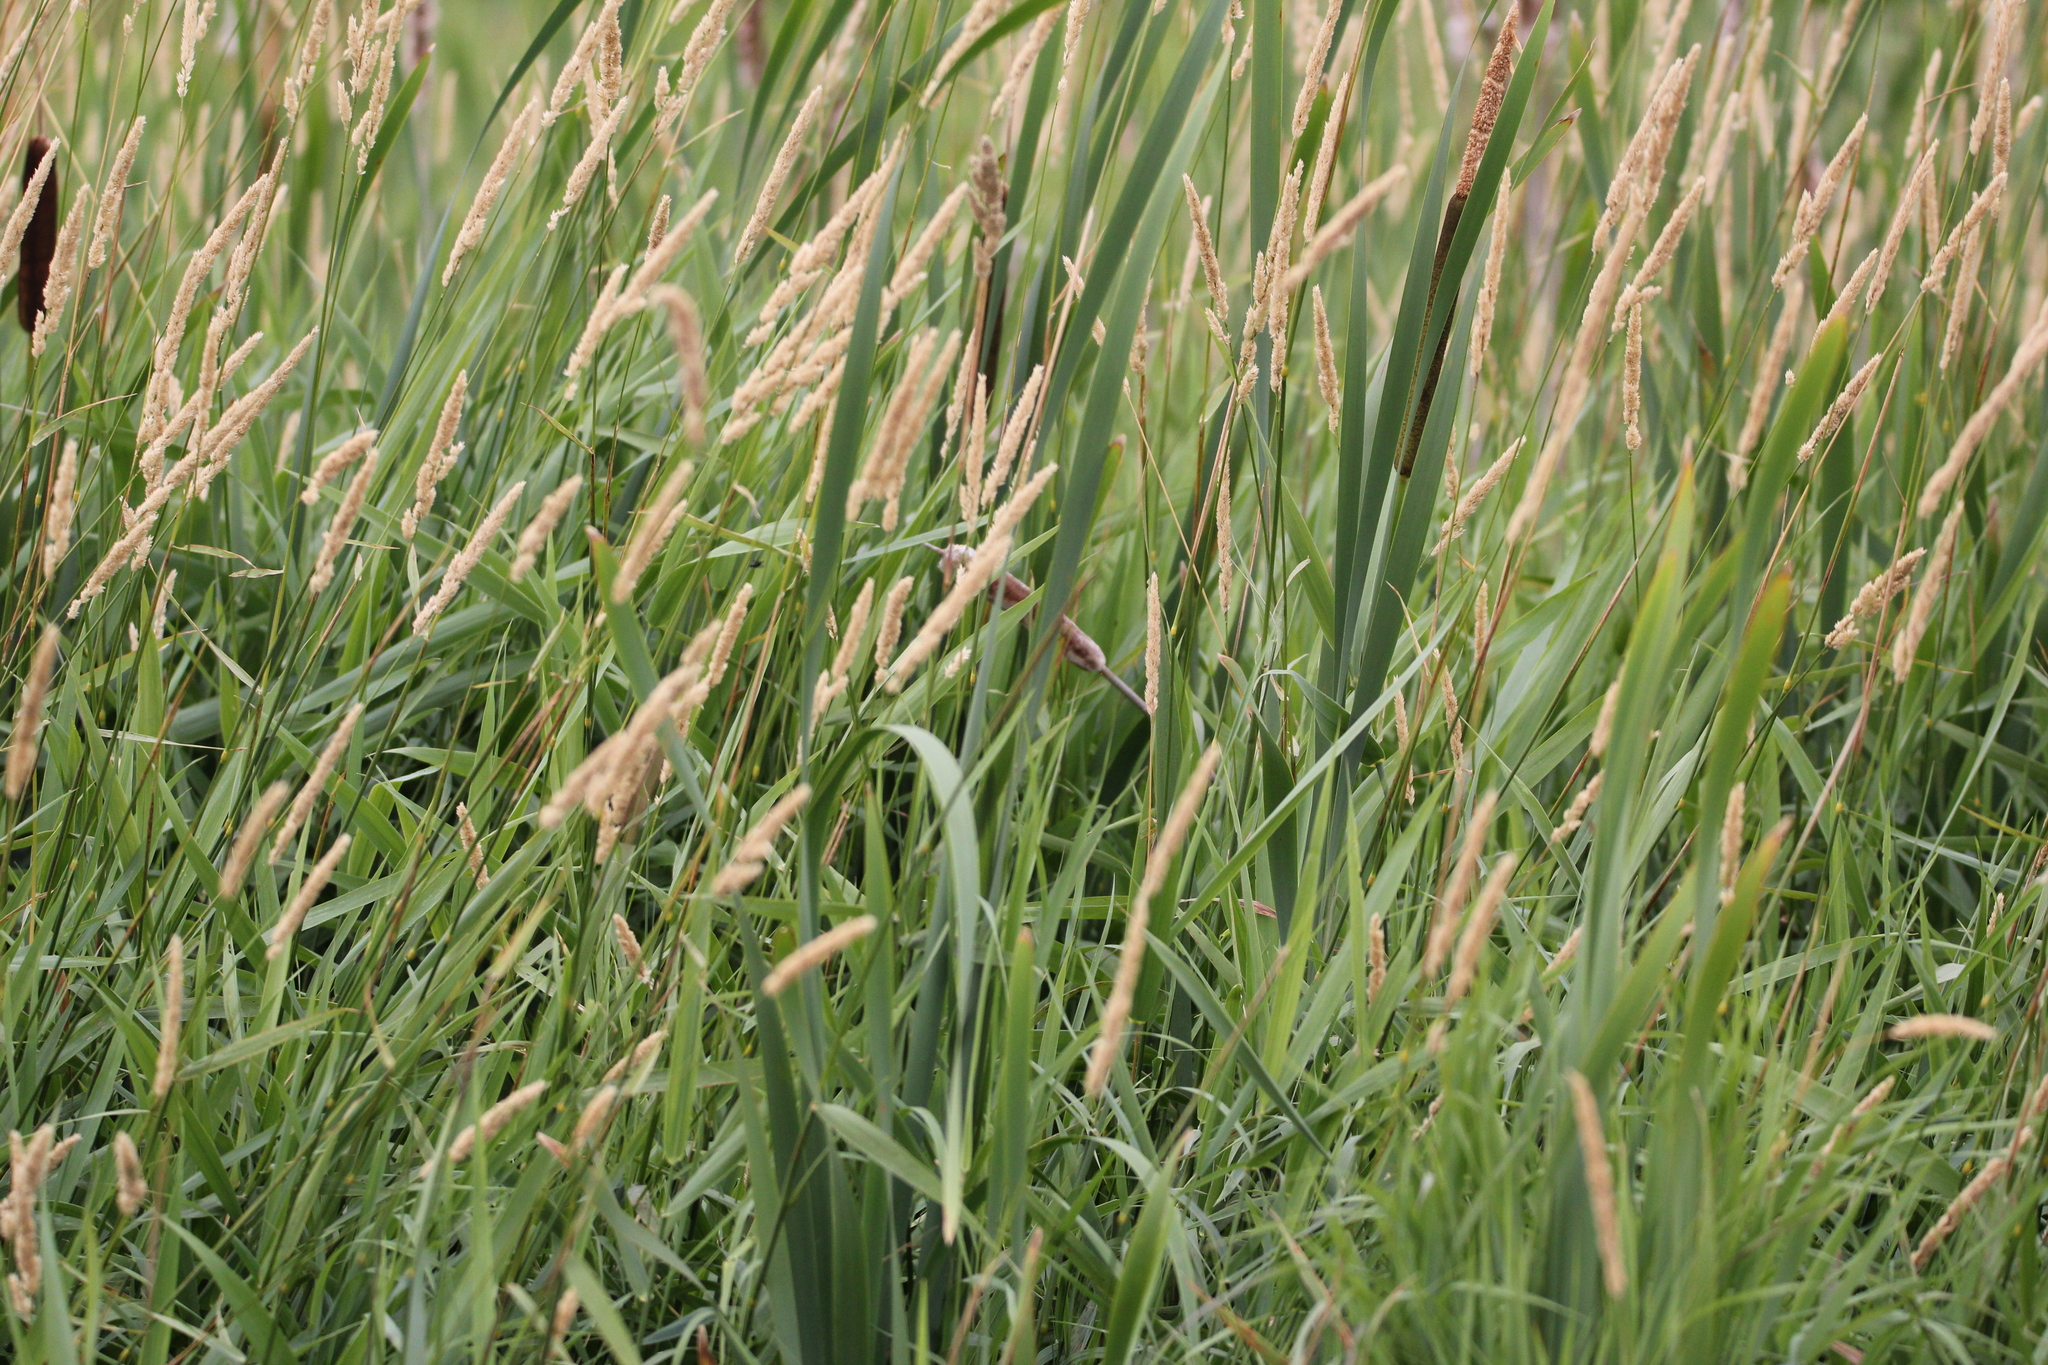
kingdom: Plantae
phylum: Tracheophyta
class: Liliopsida
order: Poales
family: Poaceae
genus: Phalaris
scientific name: Phalaris arundinacea
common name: Reed canary-grass
